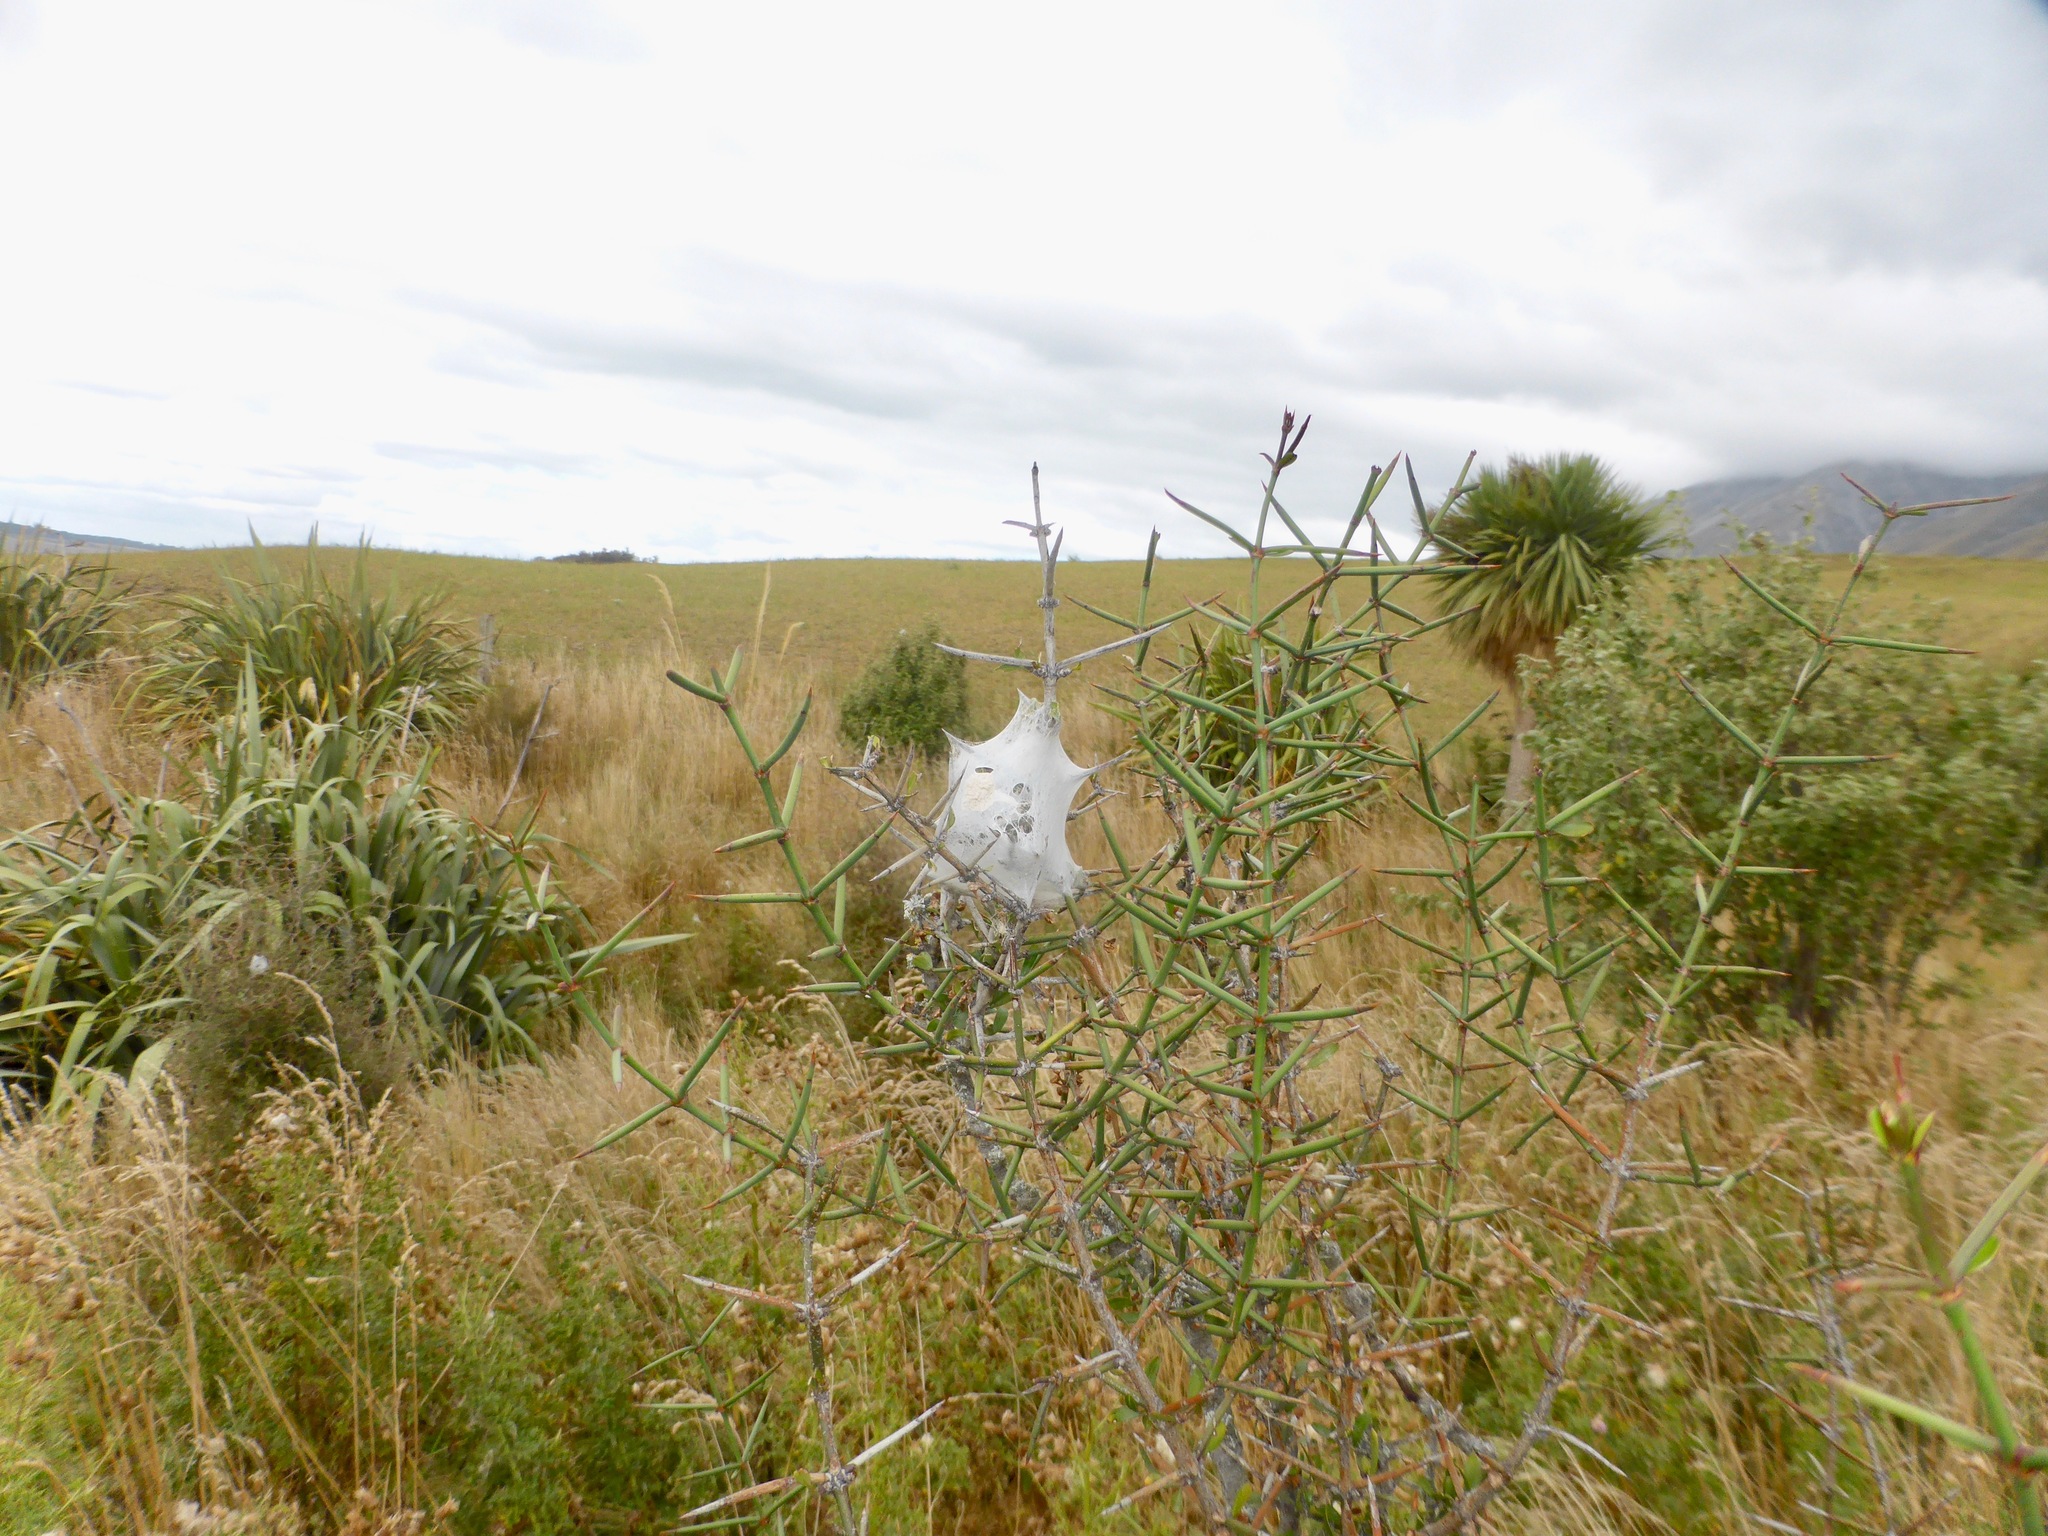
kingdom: Animalia
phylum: Arthropoda
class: Arachnida
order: Araneae
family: Pisauridae
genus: Dolomedes
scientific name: Dolomedes minor
